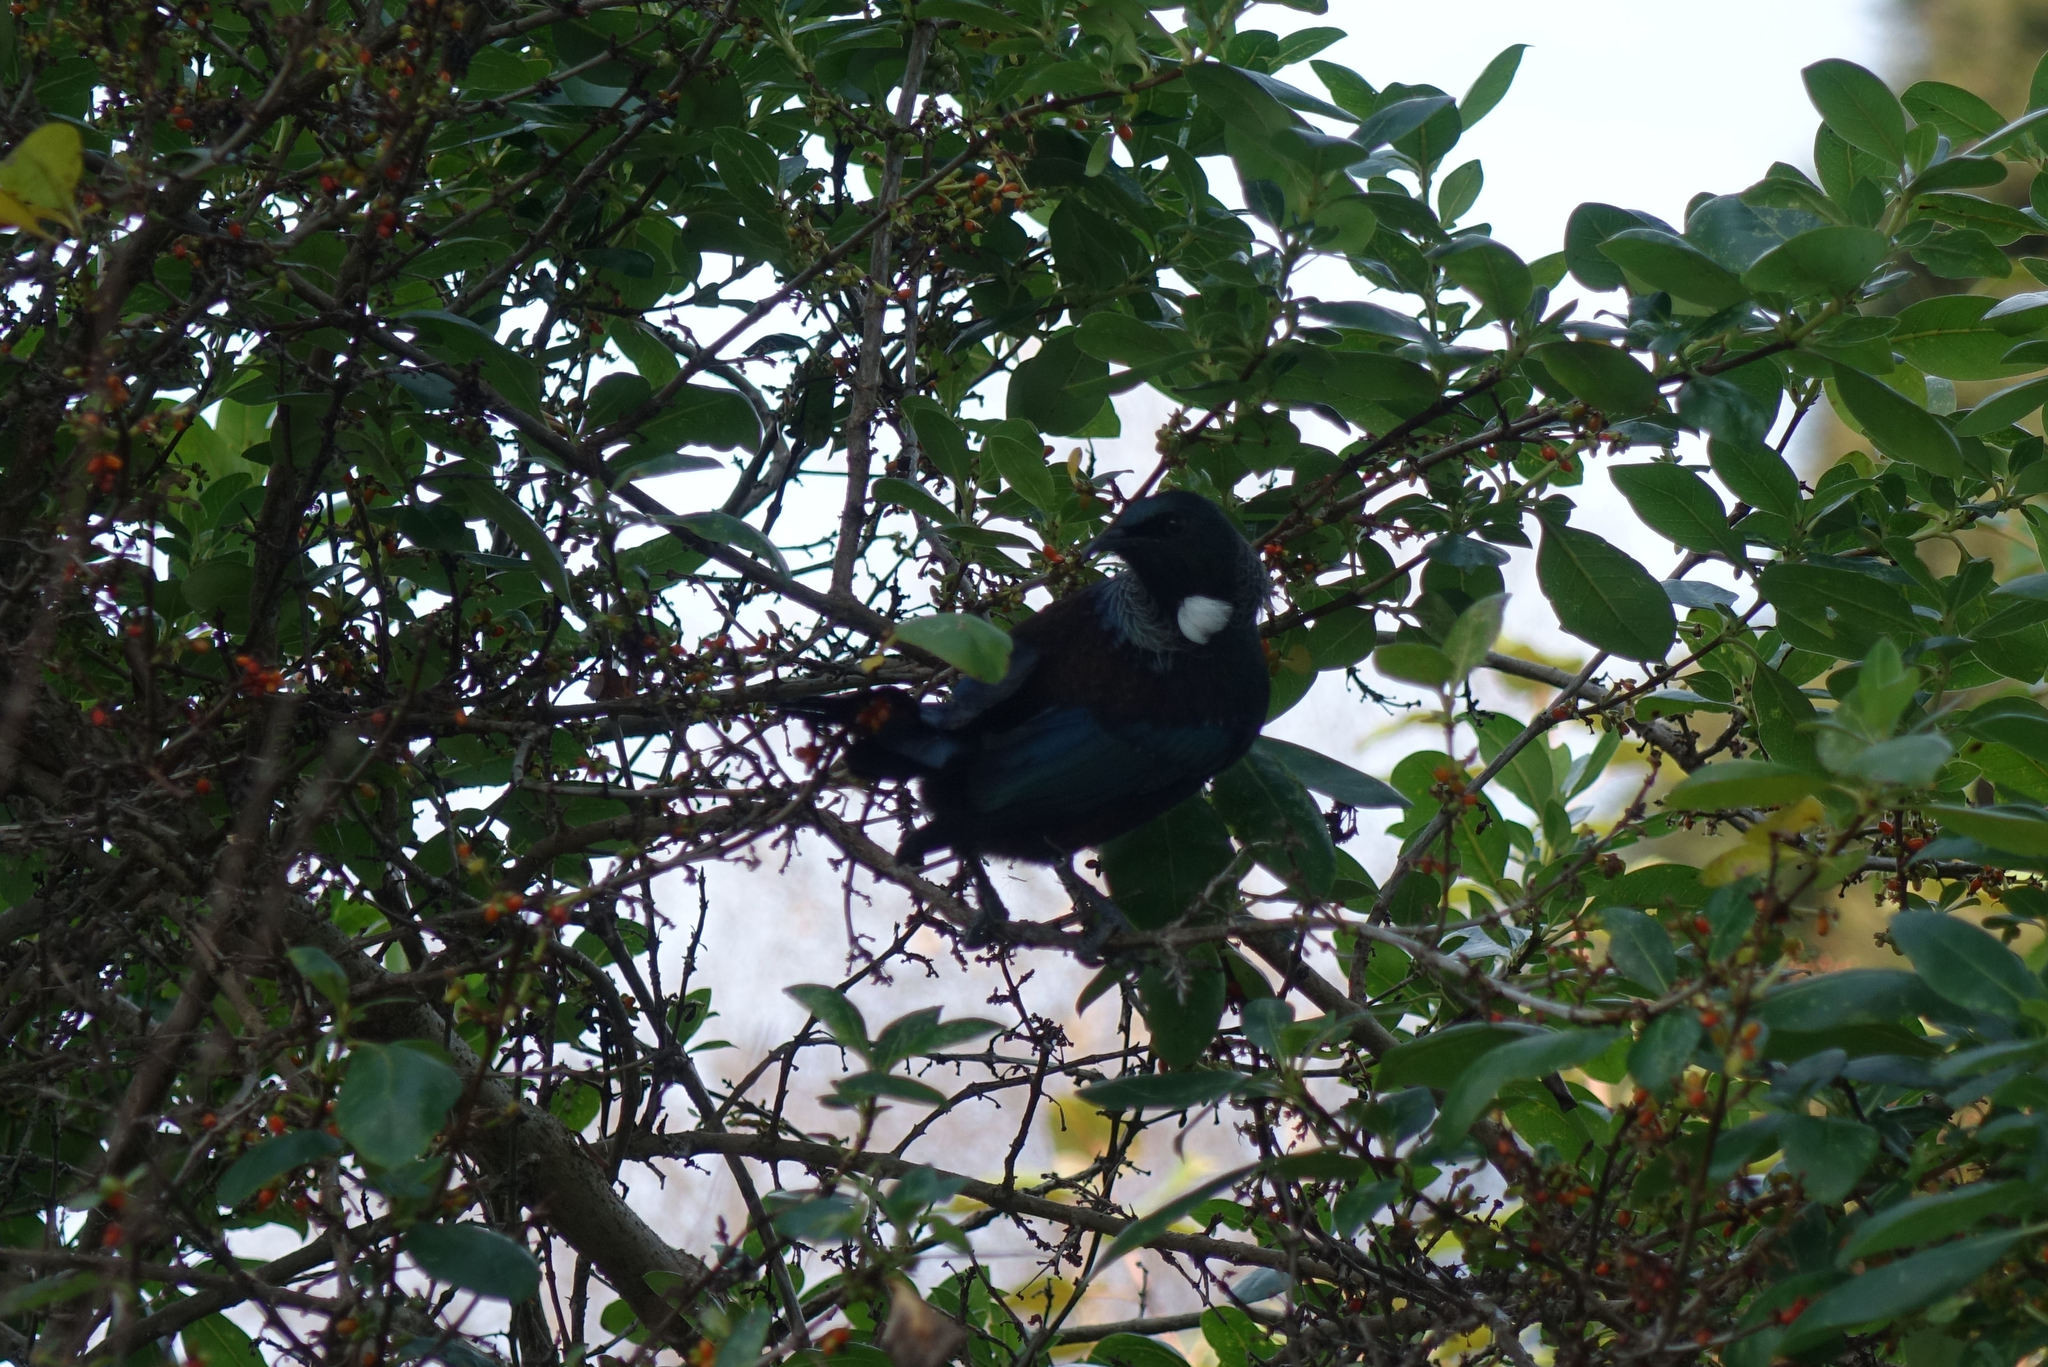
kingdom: Animalia
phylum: Chordata
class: Aves
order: Passeriformes
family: Meliphagidae
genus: Prosthemadera
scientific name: Prosthemadera novaeseelandiae
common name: Tui
